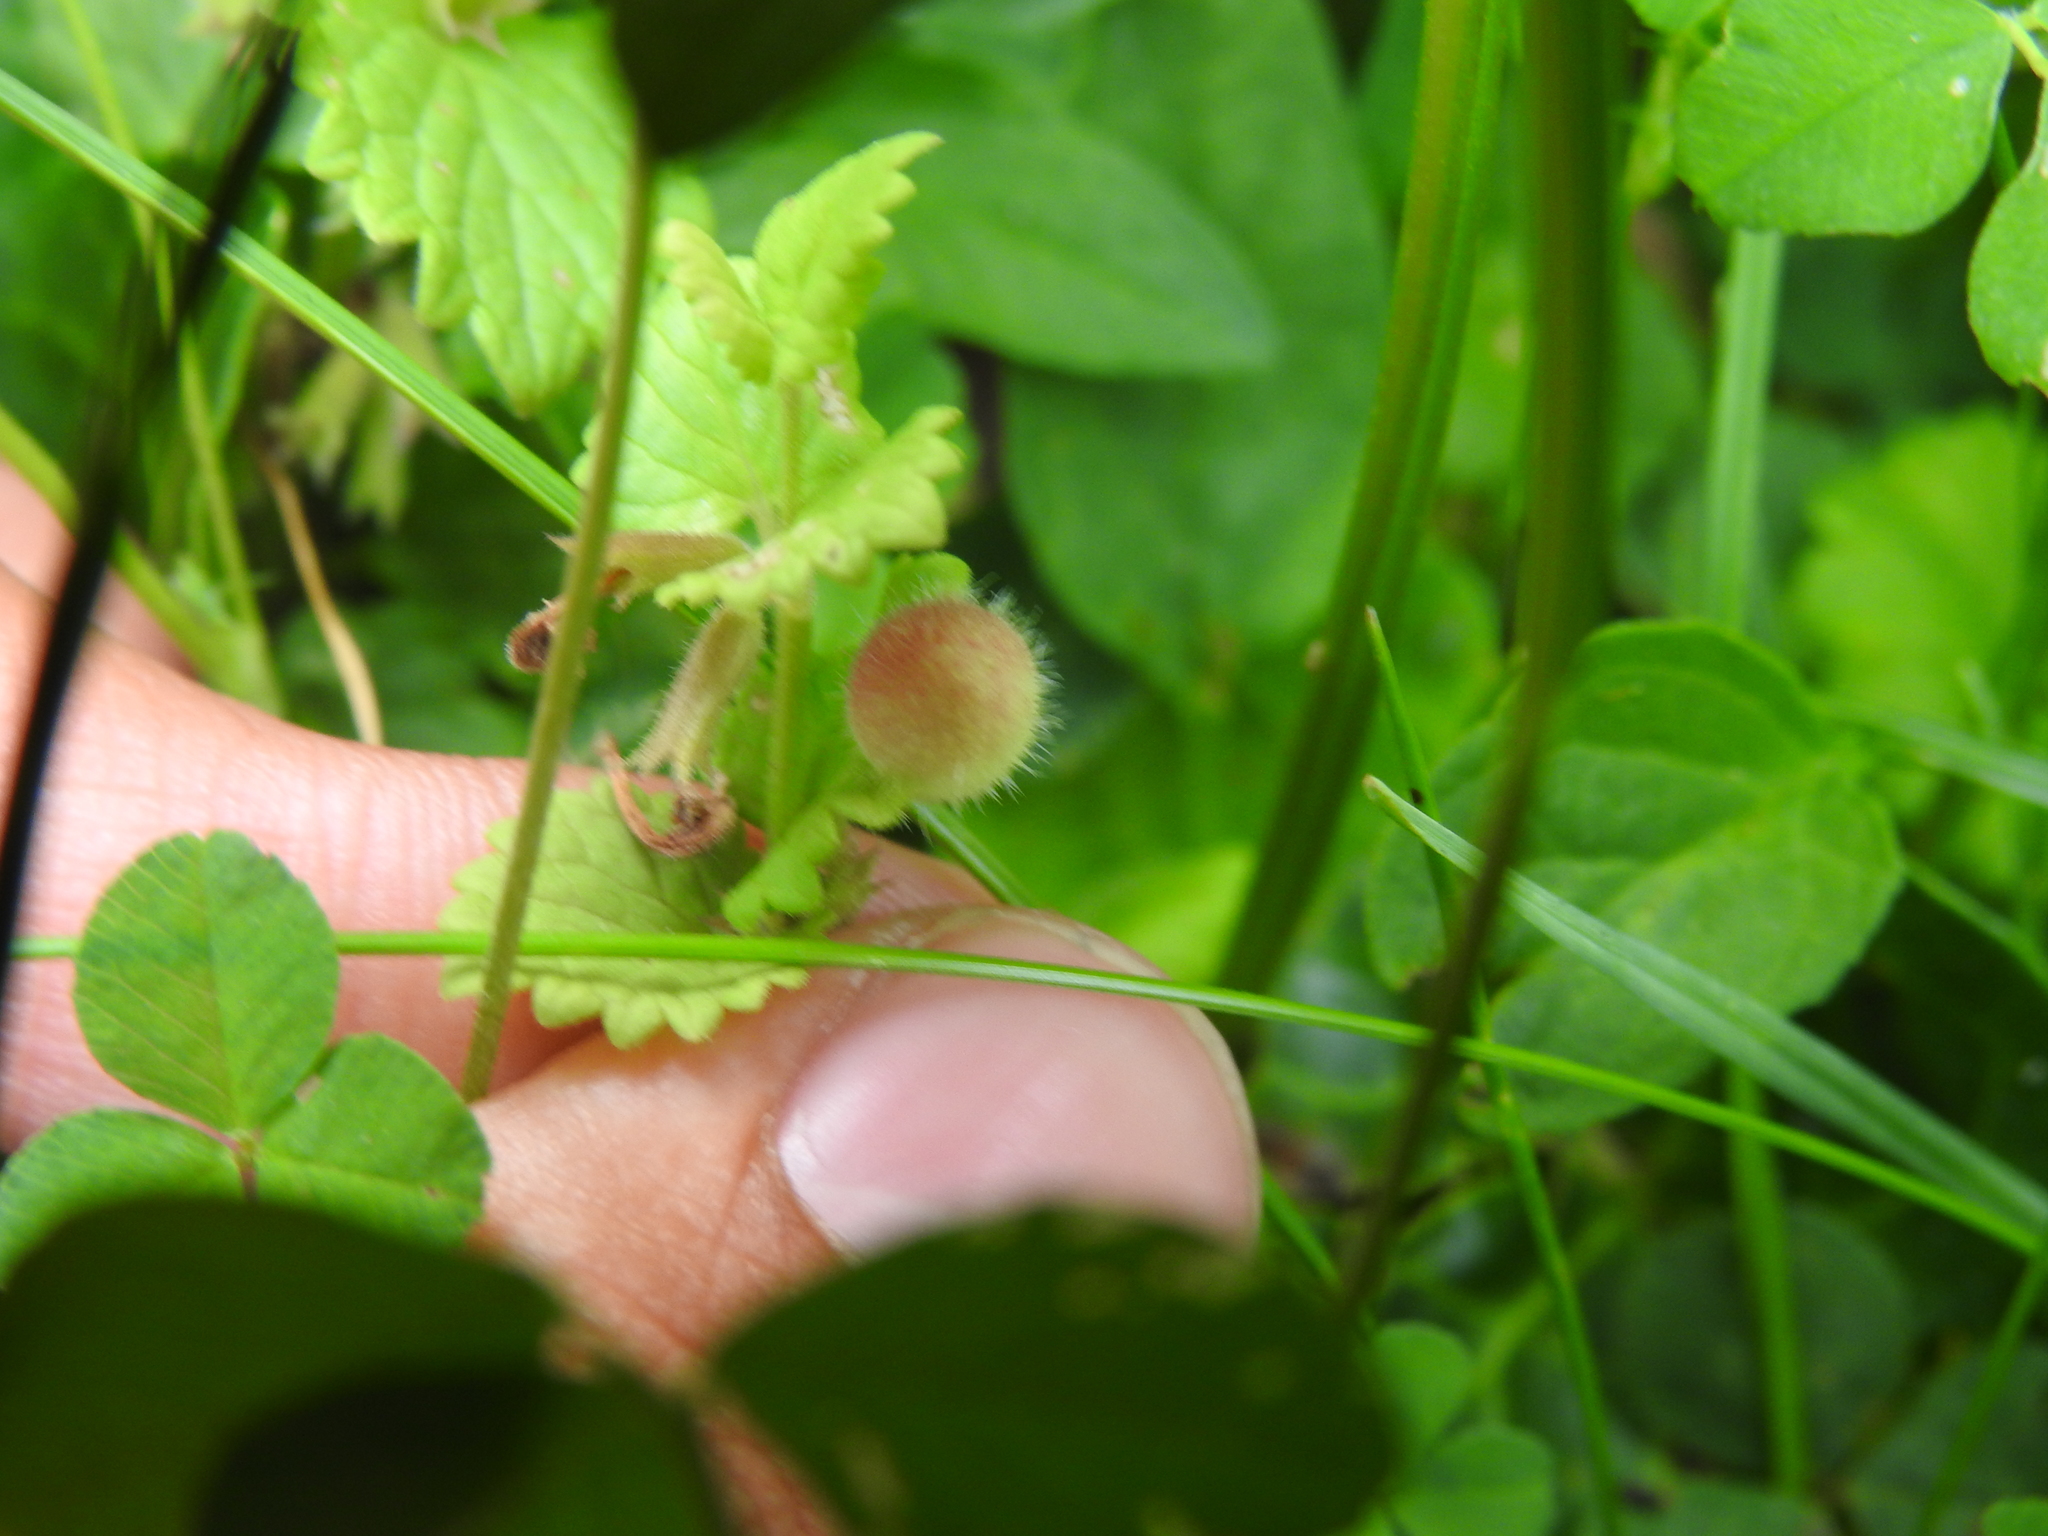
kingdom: Animalia
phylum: Arthropoda
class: Insecta
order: Hymenoptera
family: Cynipidae
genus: Liposthenes
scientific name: Liposthenes glechomae
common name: Gall wasp
